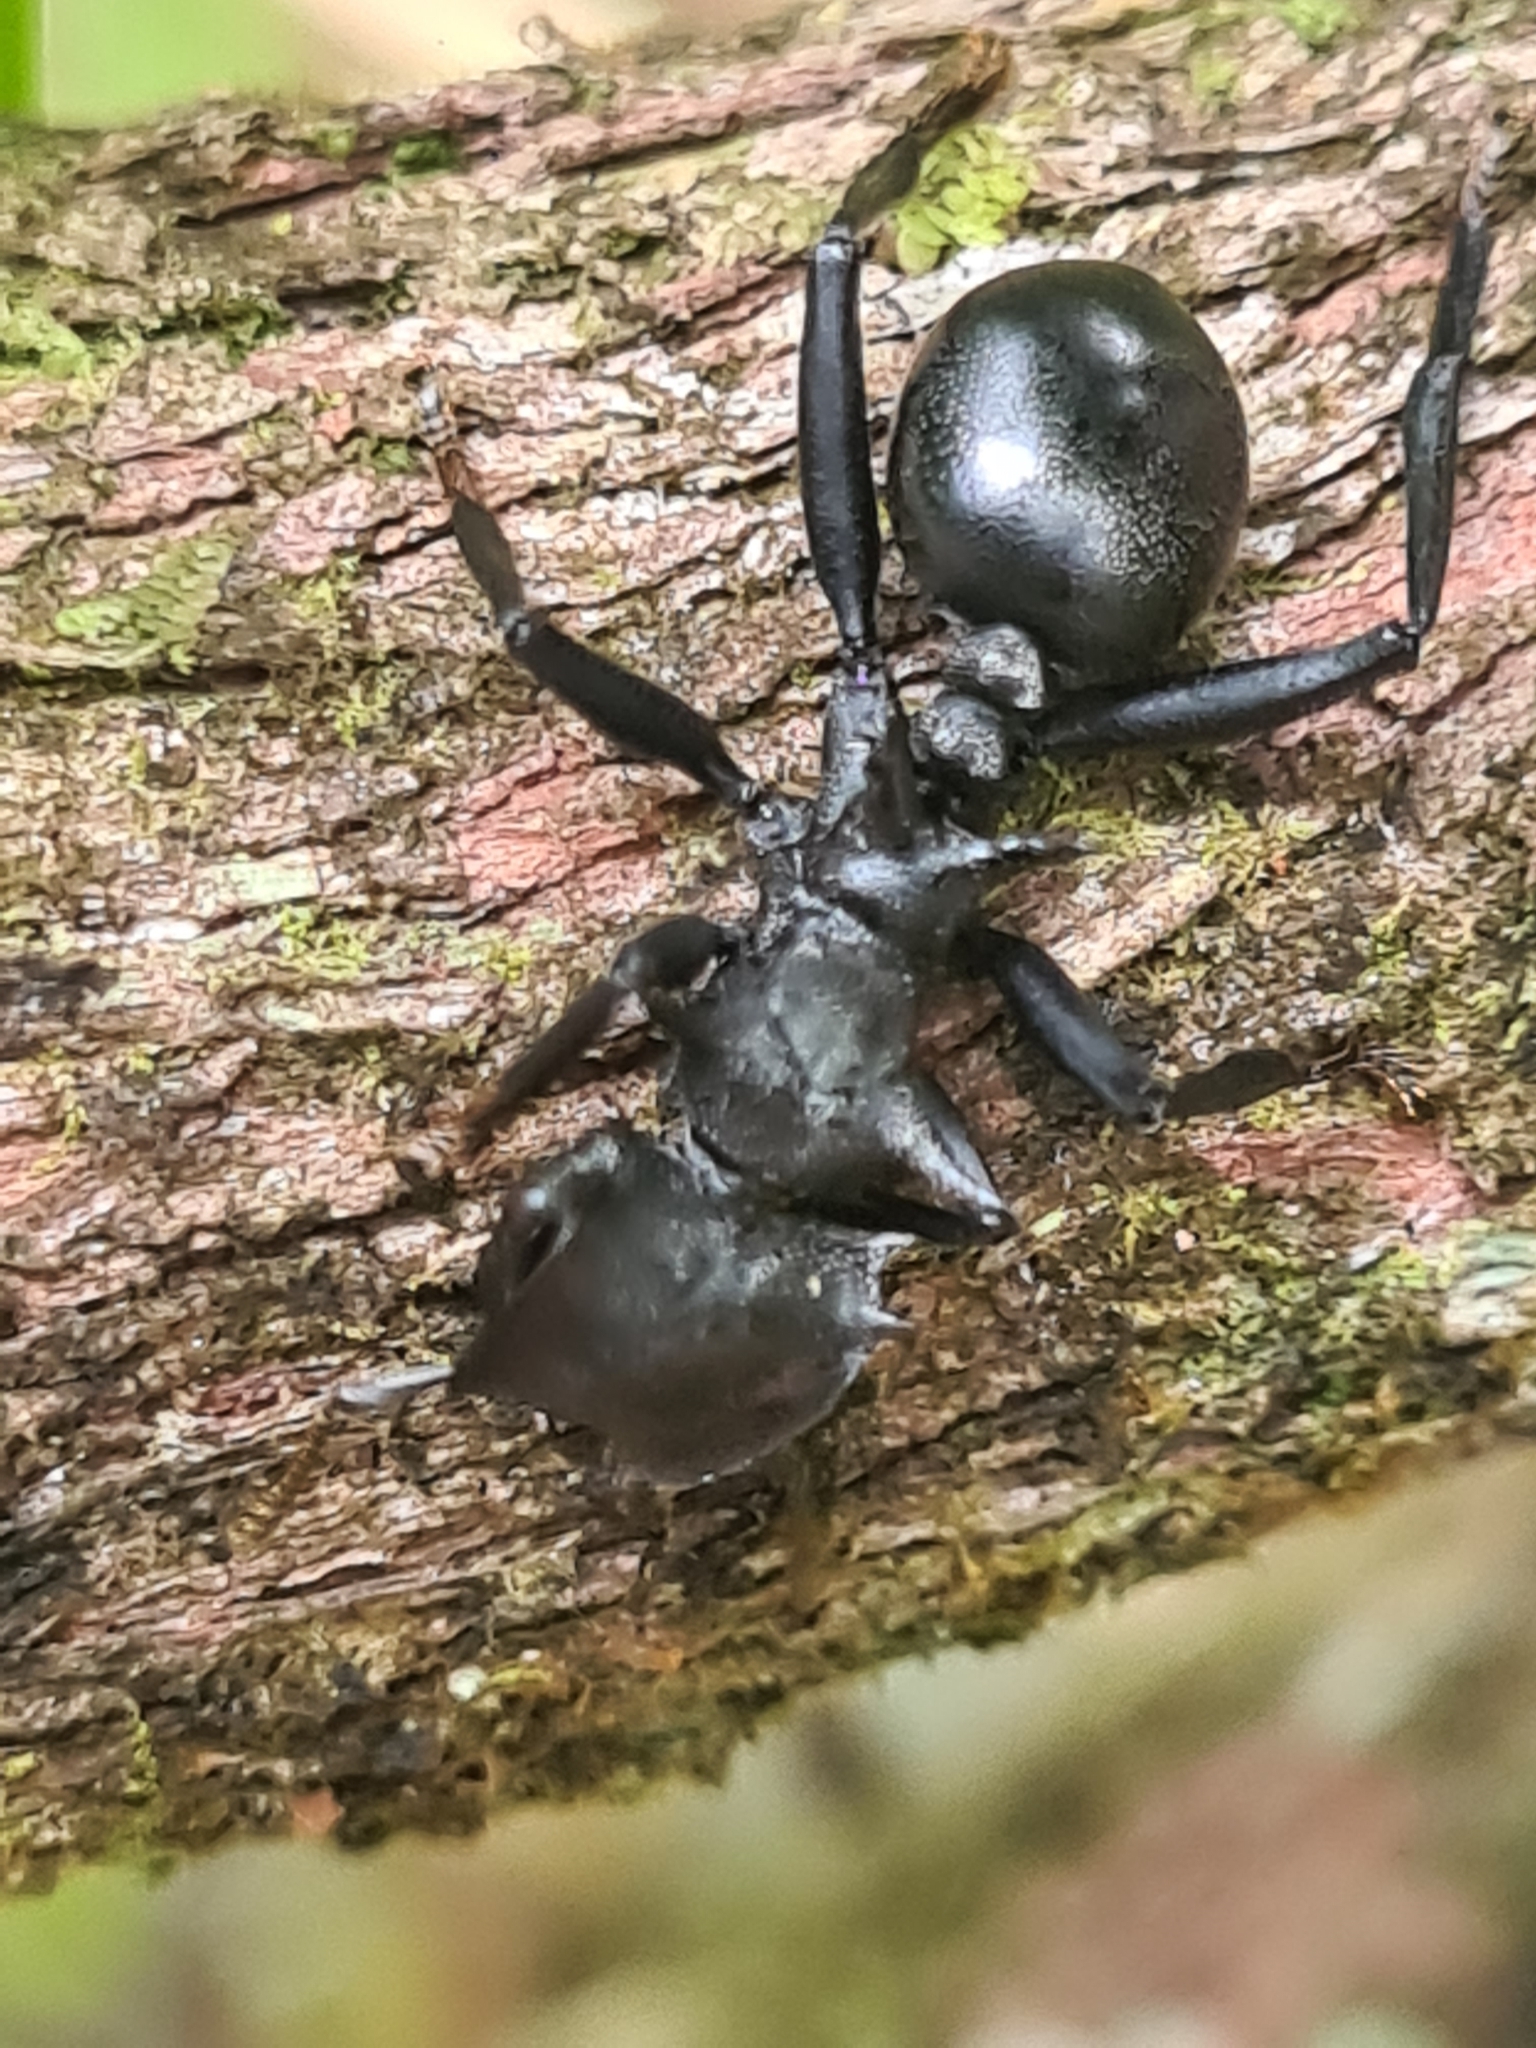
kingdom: Animalia
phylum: Arthropoda
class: Insecta
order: Hymenoptera
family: Formicidae
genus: Cephalotes
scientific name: Cephalotes atratus
